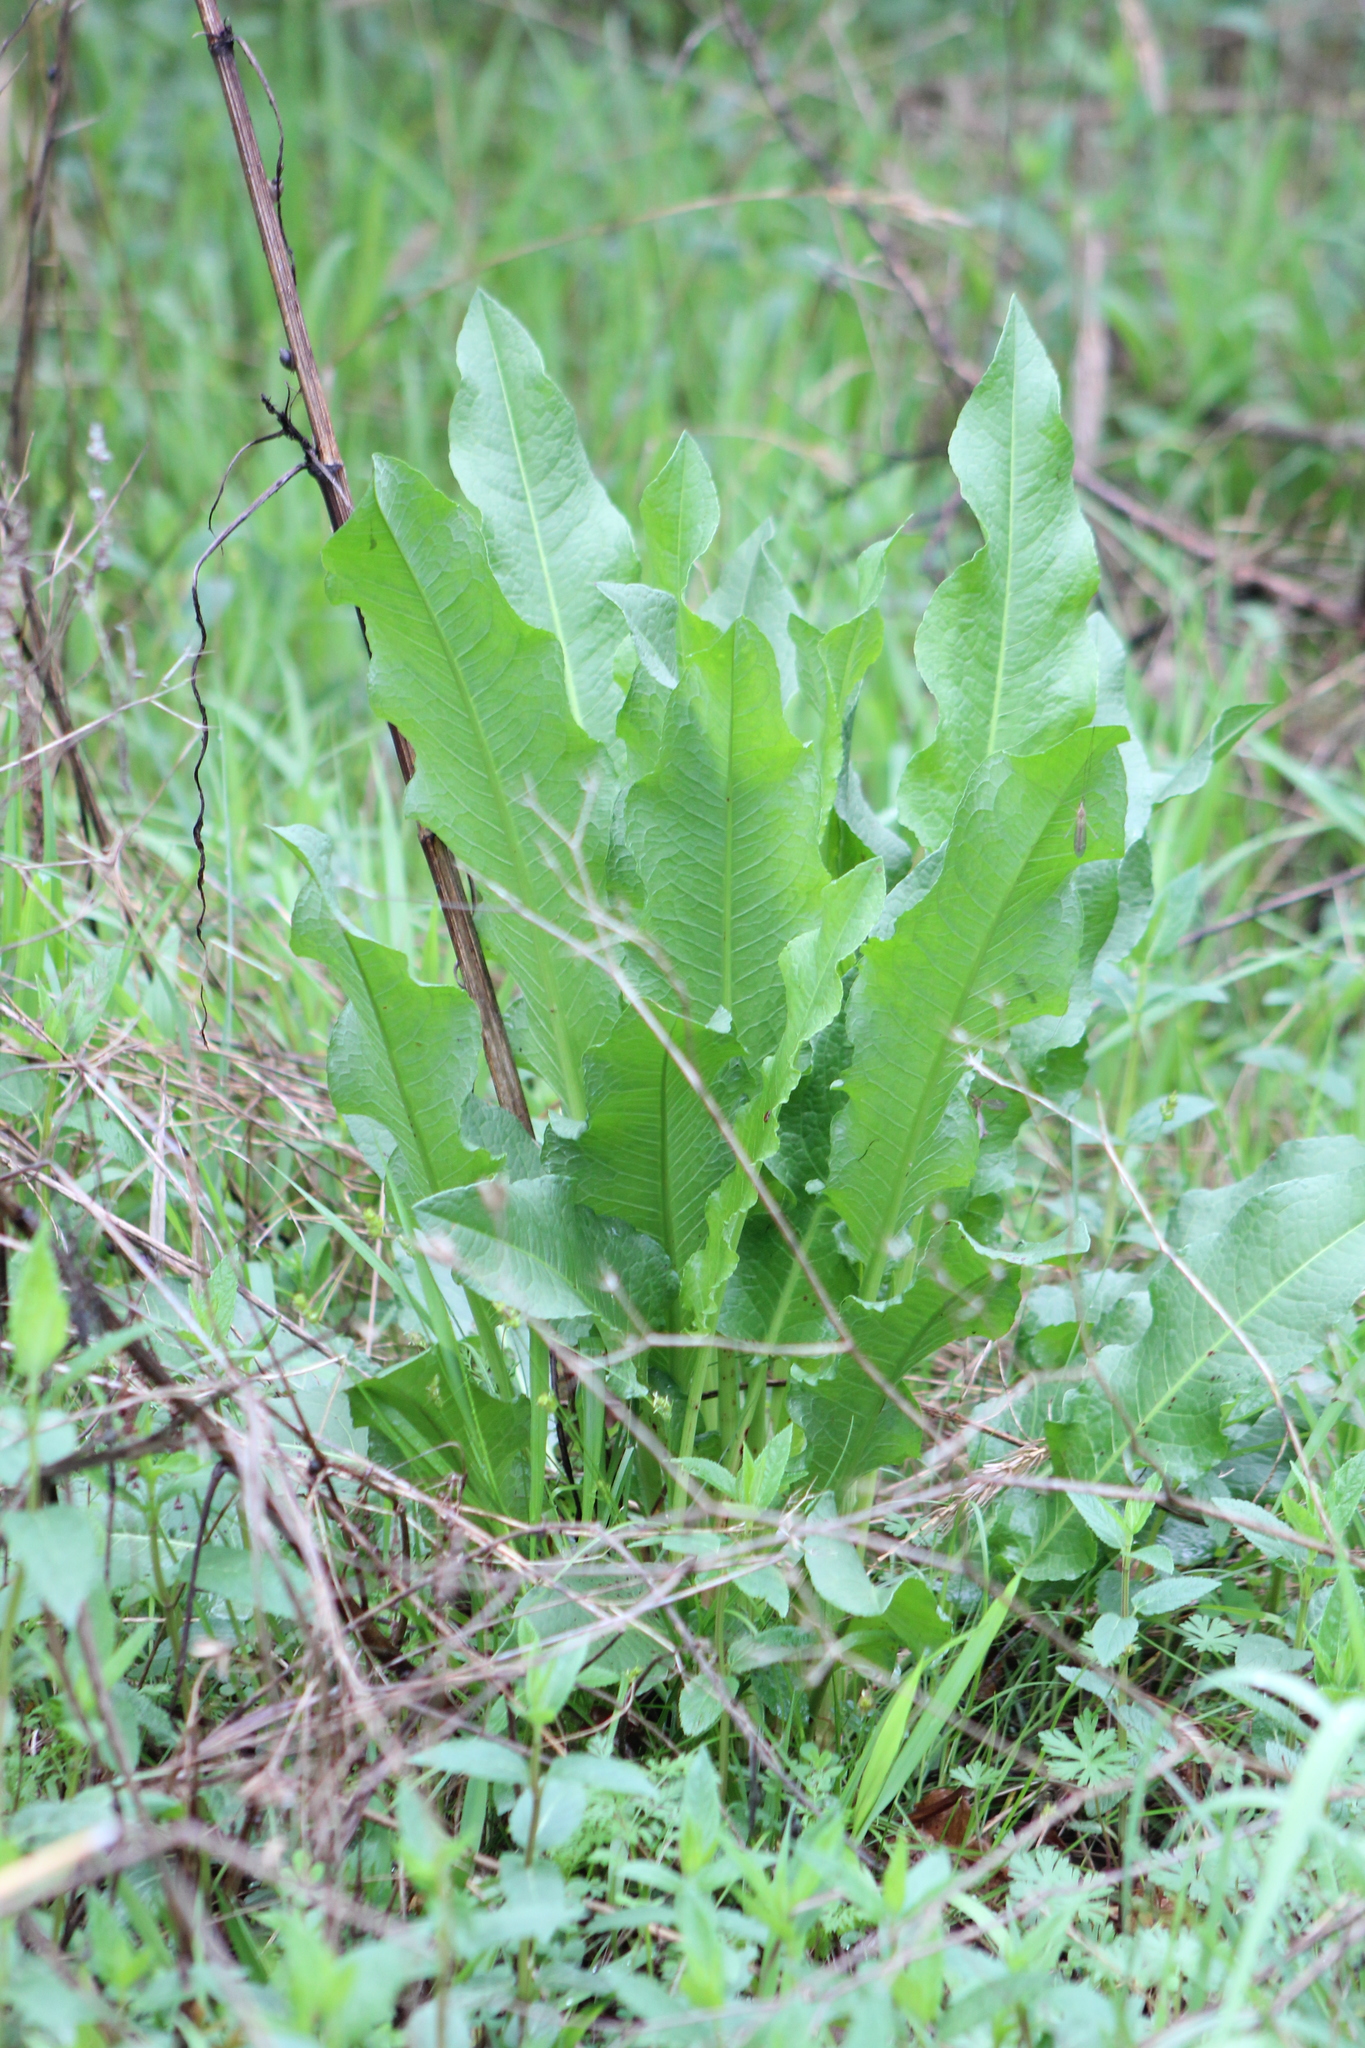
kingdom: Plantae
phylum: Tracheophyta
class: Magnoliopsida
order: Caryophyllales
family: Polygonaceae
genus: Rumex
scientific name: Rumex crispus
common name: Curled dock
